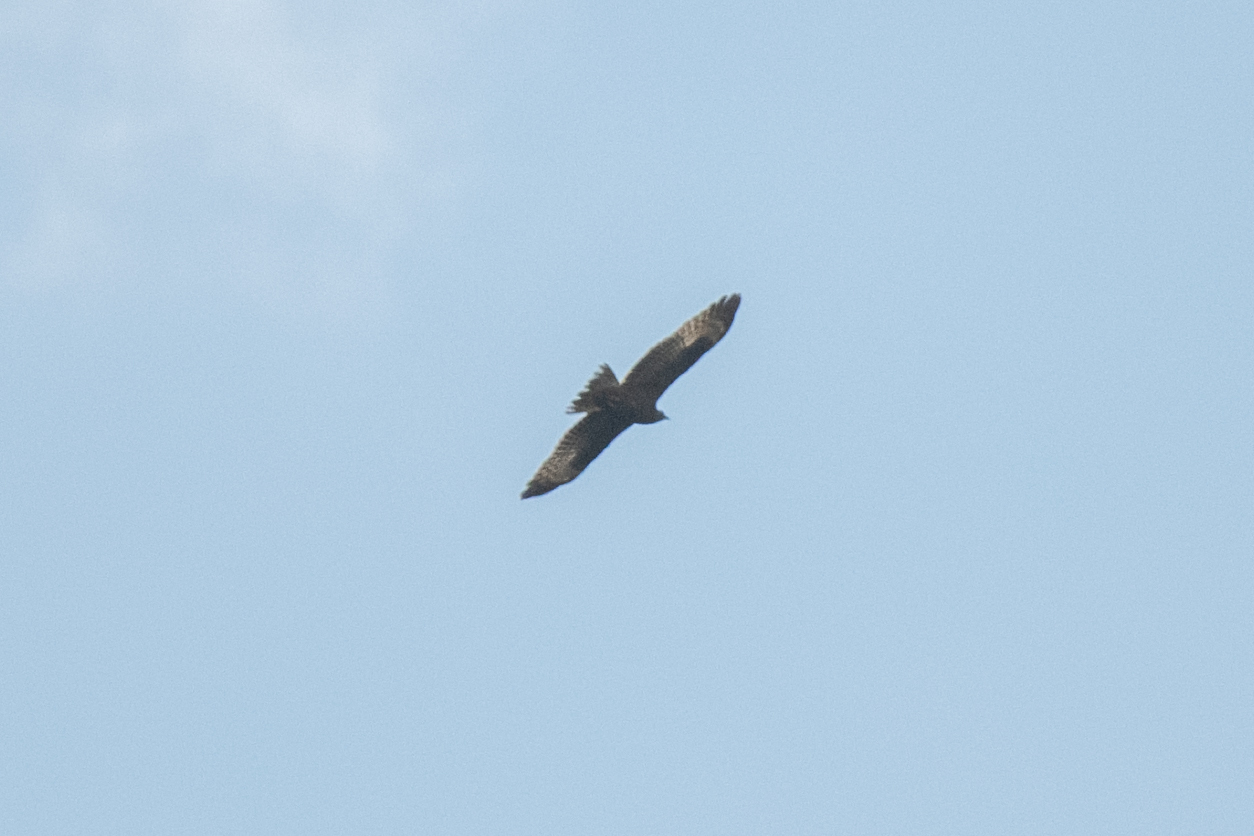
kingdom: Animalia
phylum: Chordata
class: Aves
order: Accipitriformes
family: Accipitridae
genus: Pernis
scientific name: Pernis apivorus
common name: European honey buzzard
